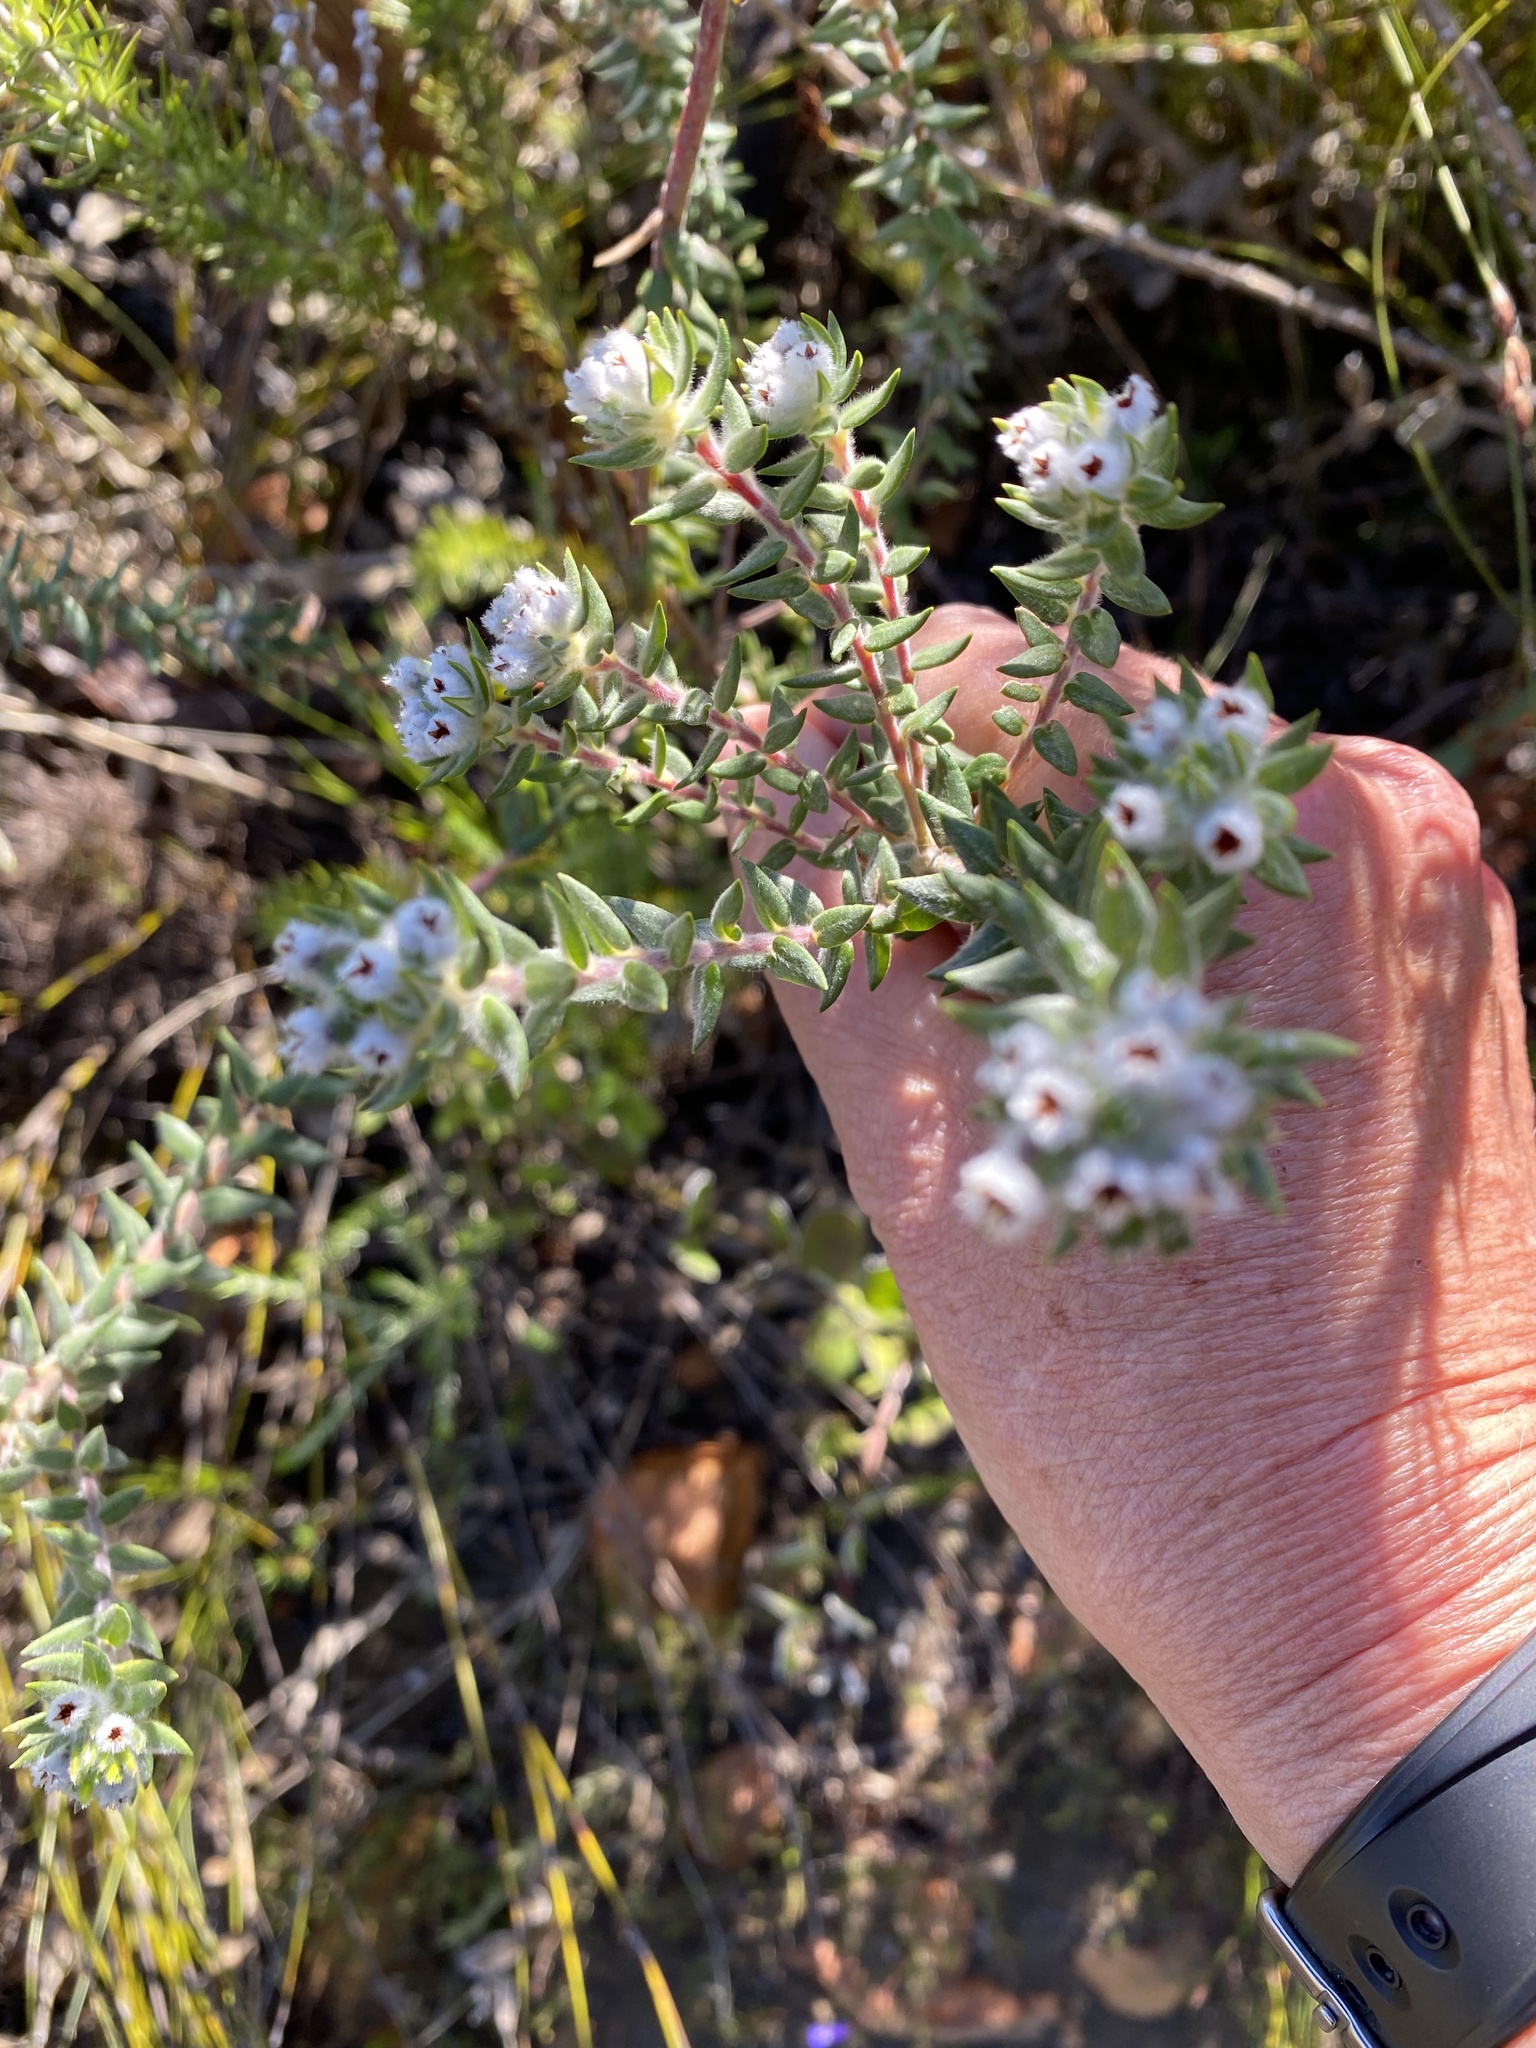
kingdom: Plantae
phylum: Tracheophyta
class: Magnoliopsida
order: Rosales
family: Rhamnaceae
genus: Phylica
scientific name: Phylica purpurea
